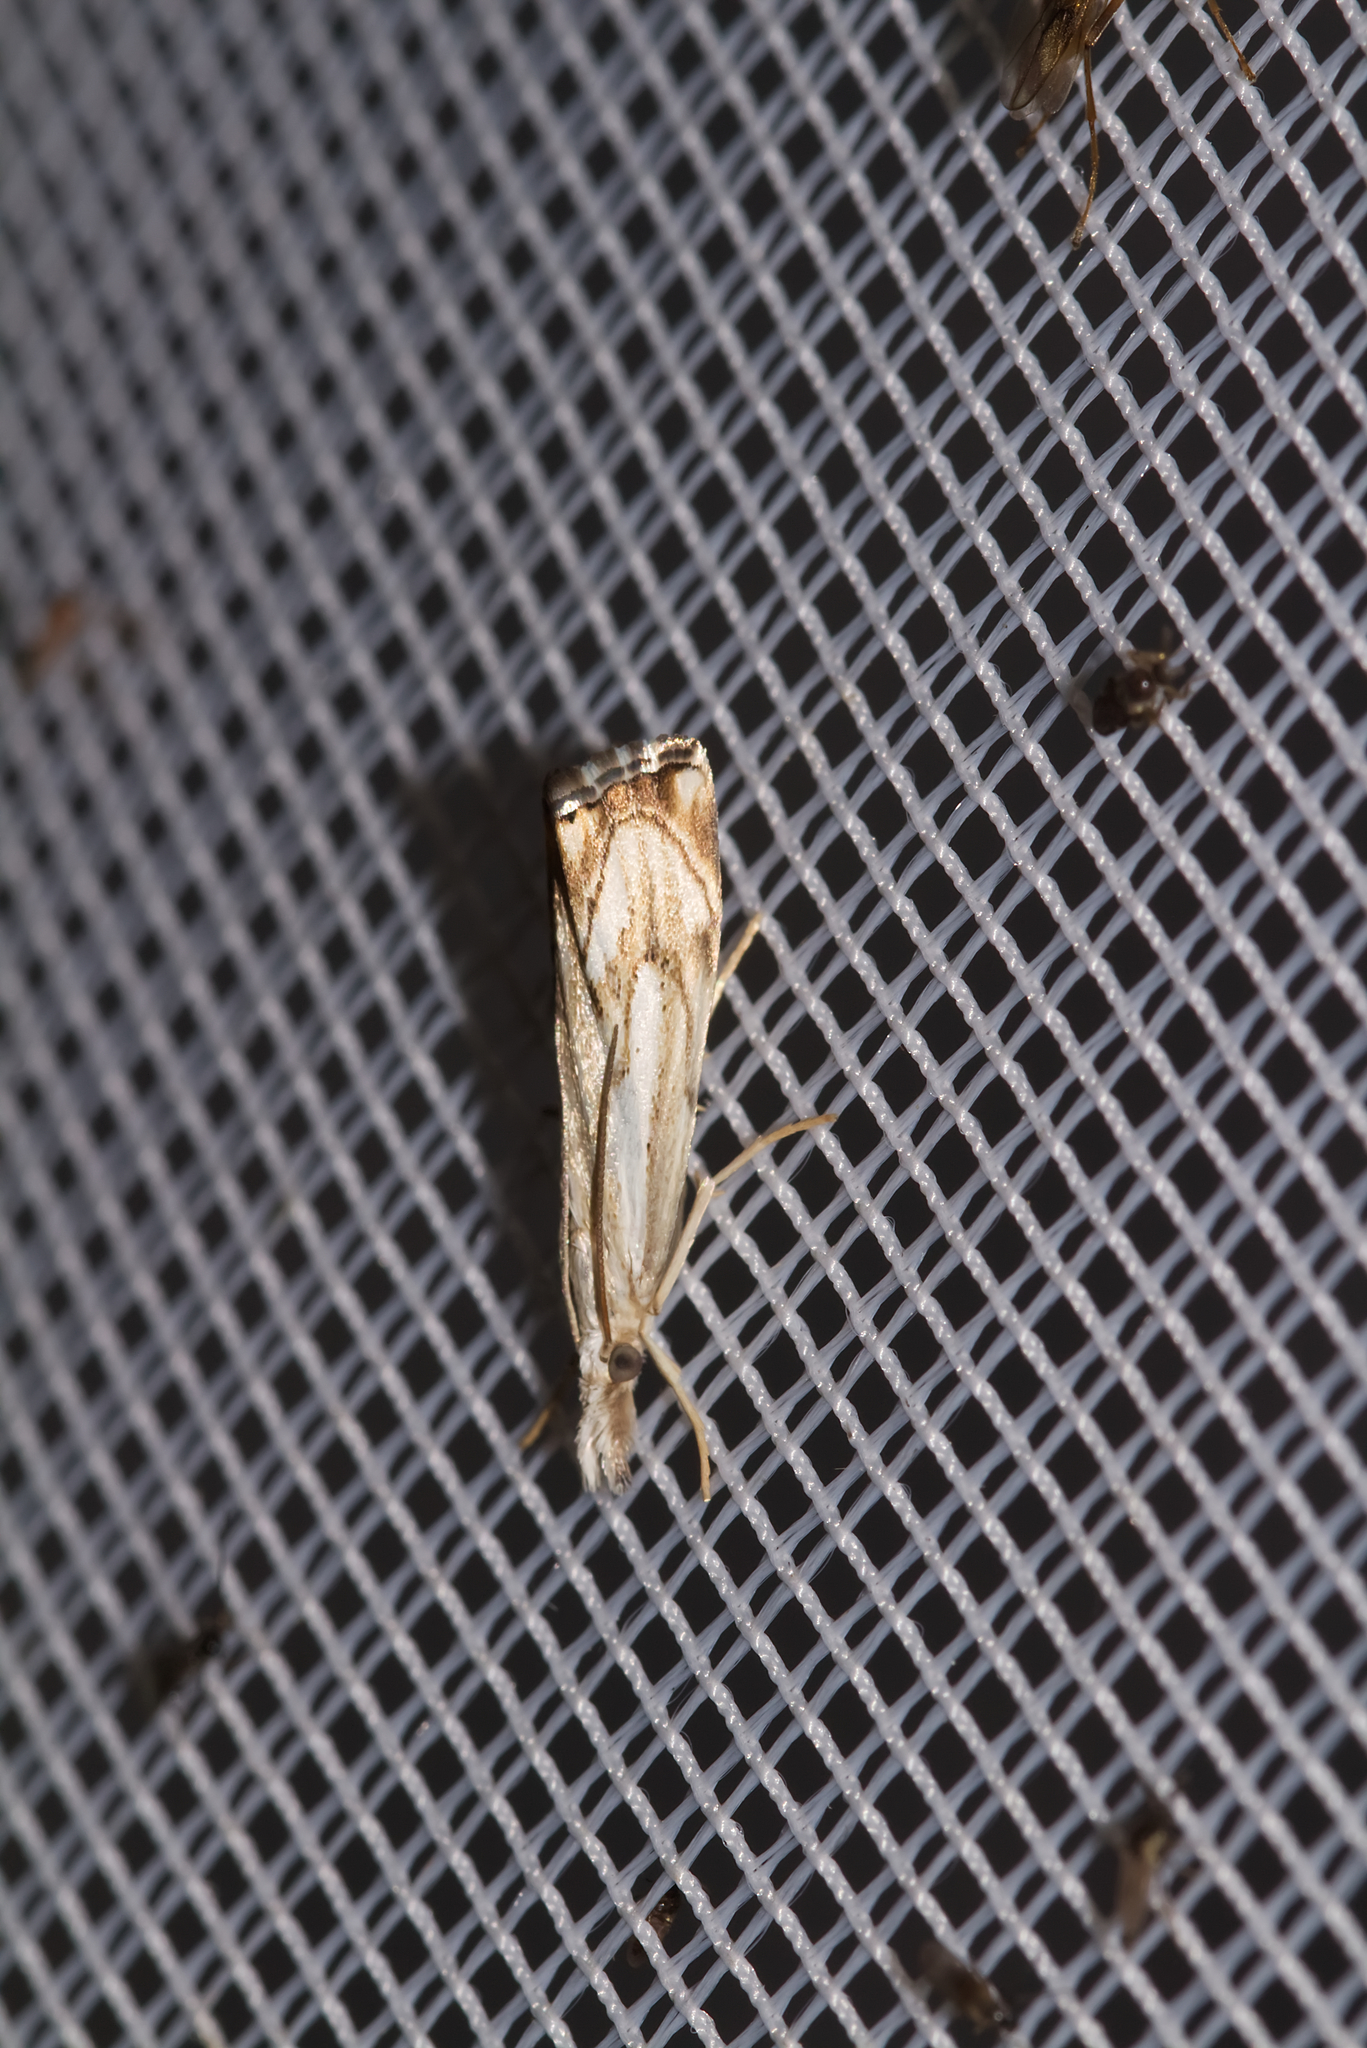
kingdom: Animalia
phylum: Arthropoda
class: Insecta
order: Lepidoptera
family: Crambidae
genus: Catoptria
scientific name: Catoptria falsella
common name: Chequered grass-veneer
